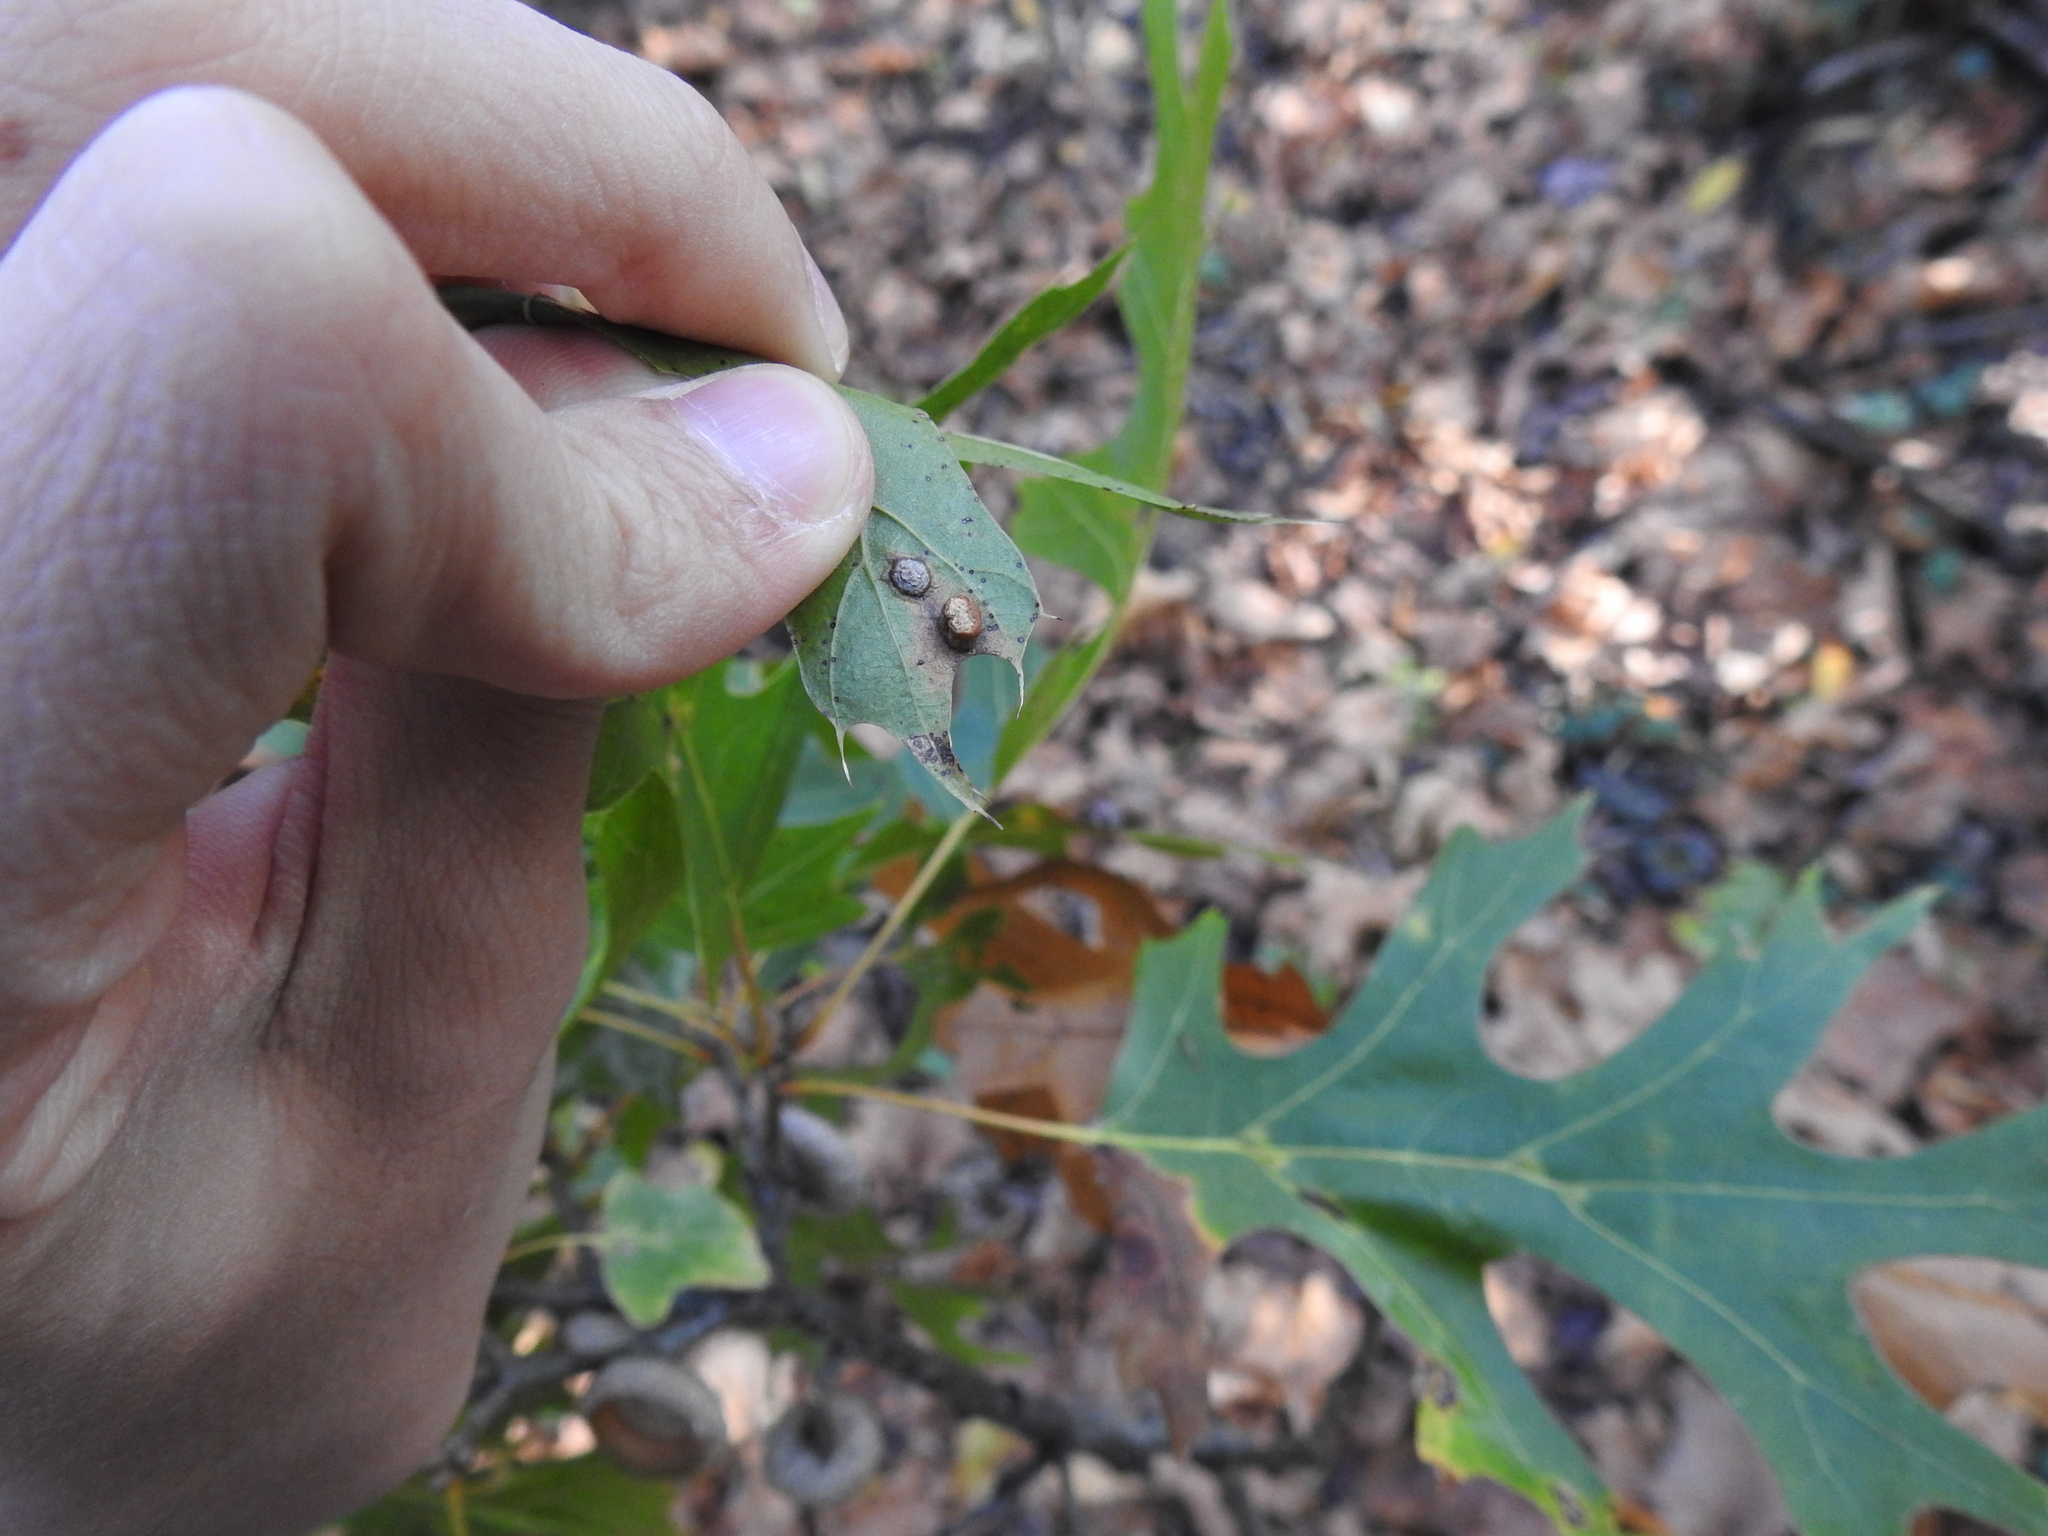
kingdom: Animalia
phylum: Arthropoda
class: Insecta
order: Diptera
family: Cecidomyiidae
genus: Polystepha
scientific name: Polystepha globosa
